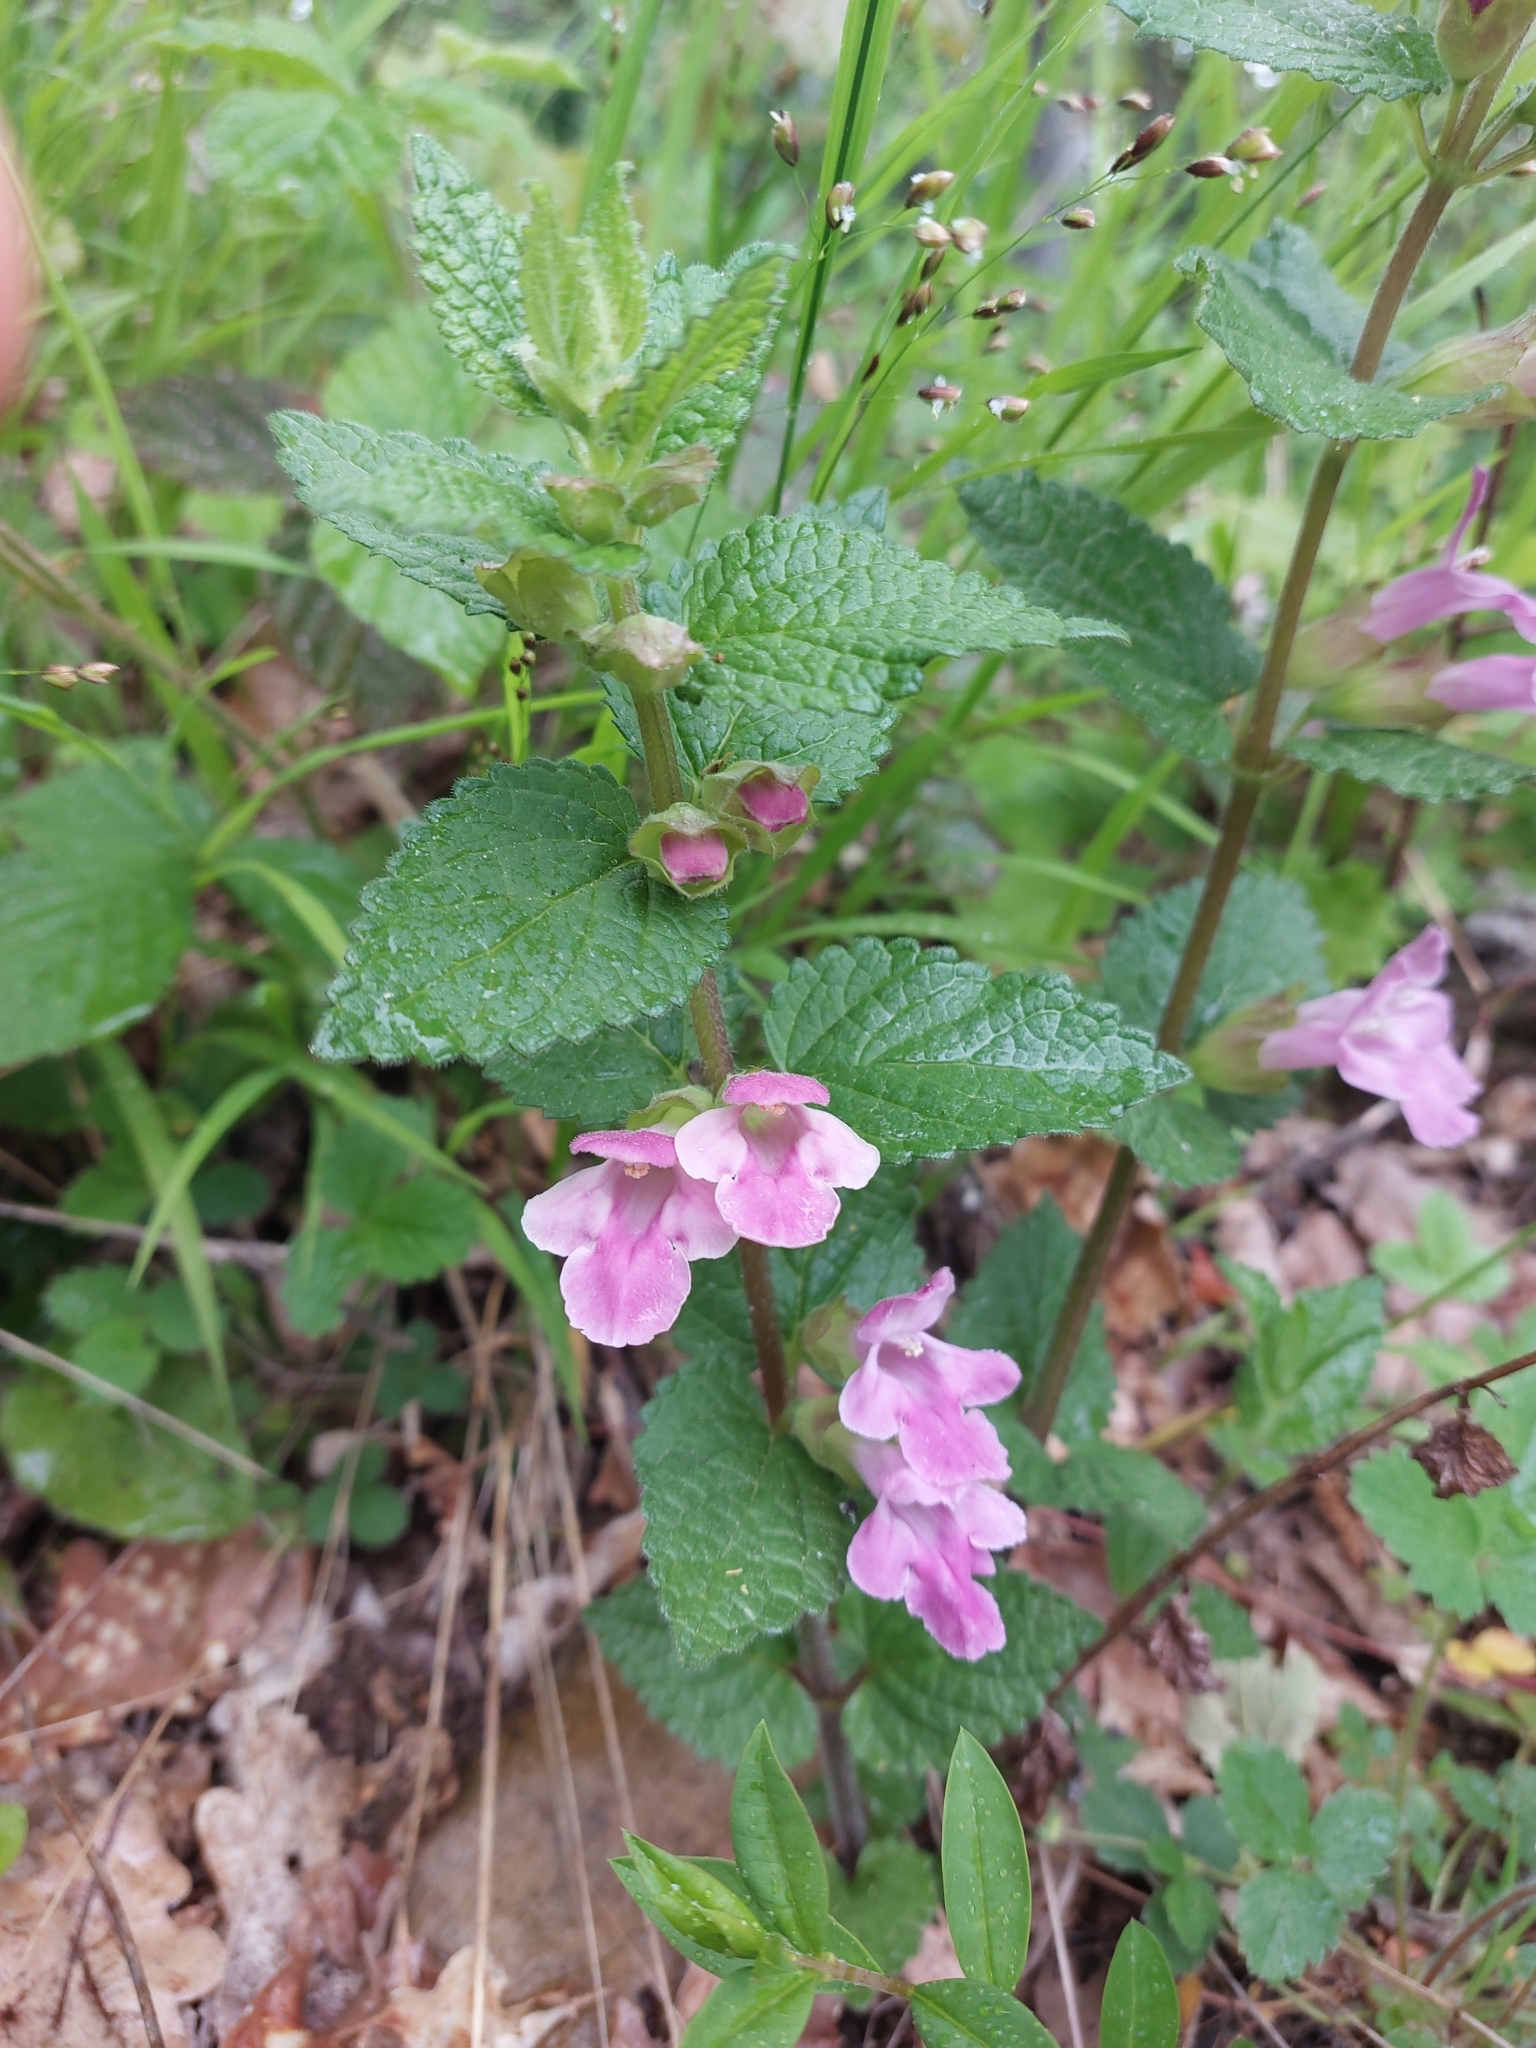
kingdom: Plantae
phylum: Tracheophyta
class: Magnoliopsida
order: Lamiales
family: Lamiaceae
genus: Melittis
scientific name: Melittis melissophyllum
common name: Bastard balm
